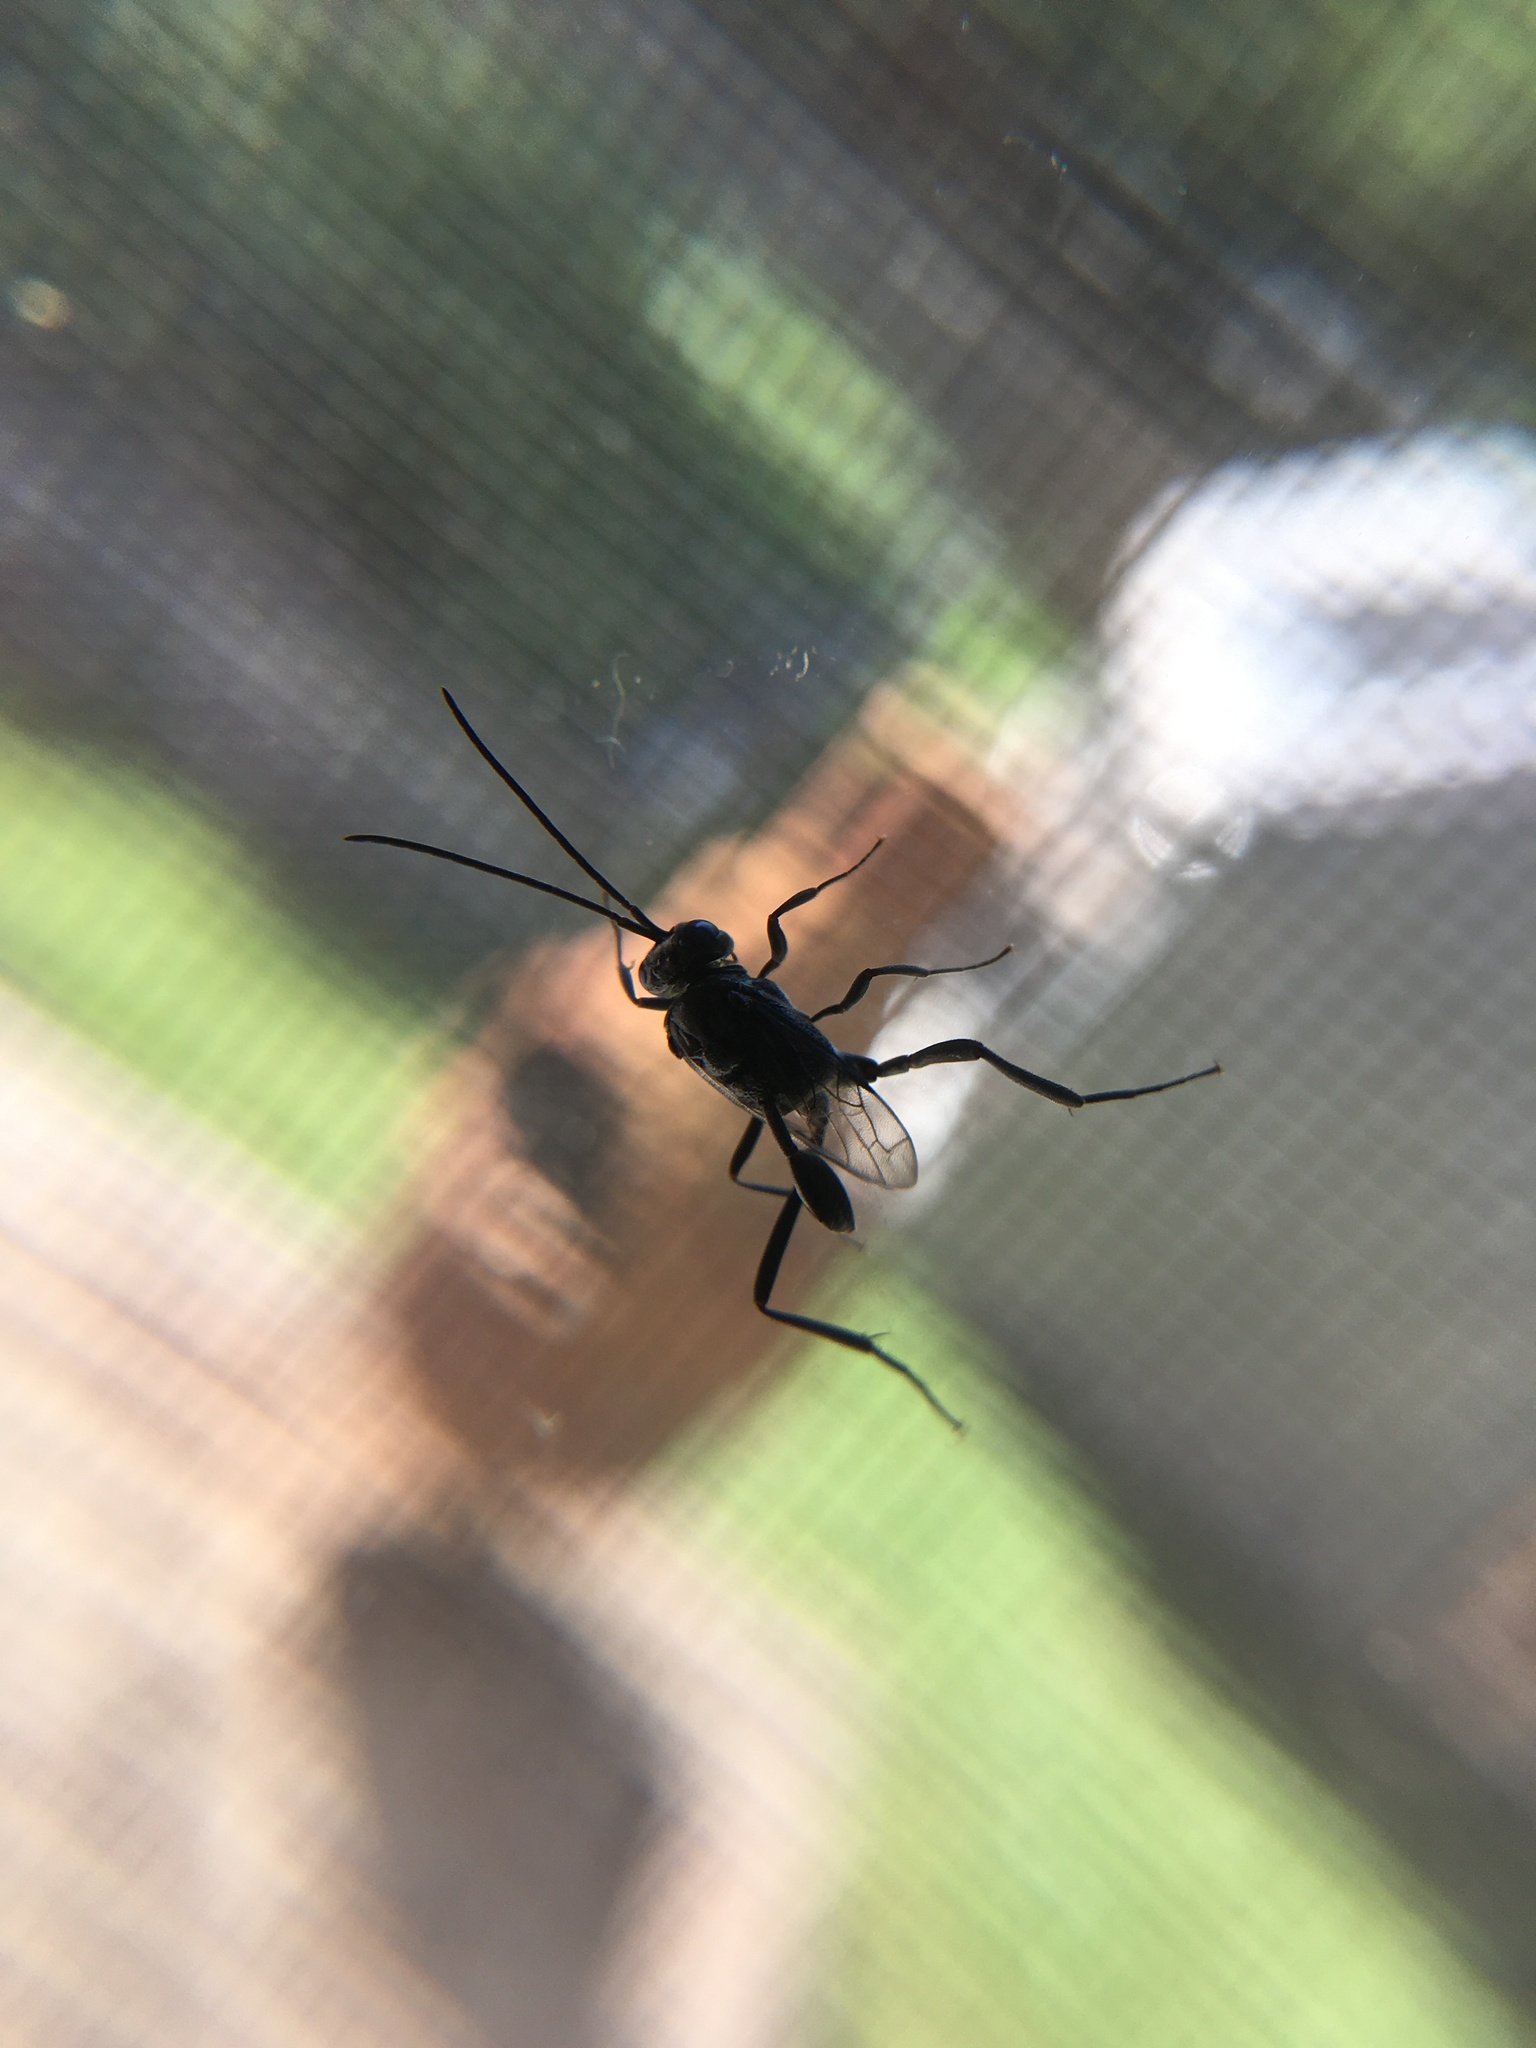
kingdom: Animalia
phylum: Arthropoda
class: Insecta
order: Hymenoptera
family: Evaniidae
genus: Evania
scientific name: Evania appendigaster
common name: Ensign wasp
